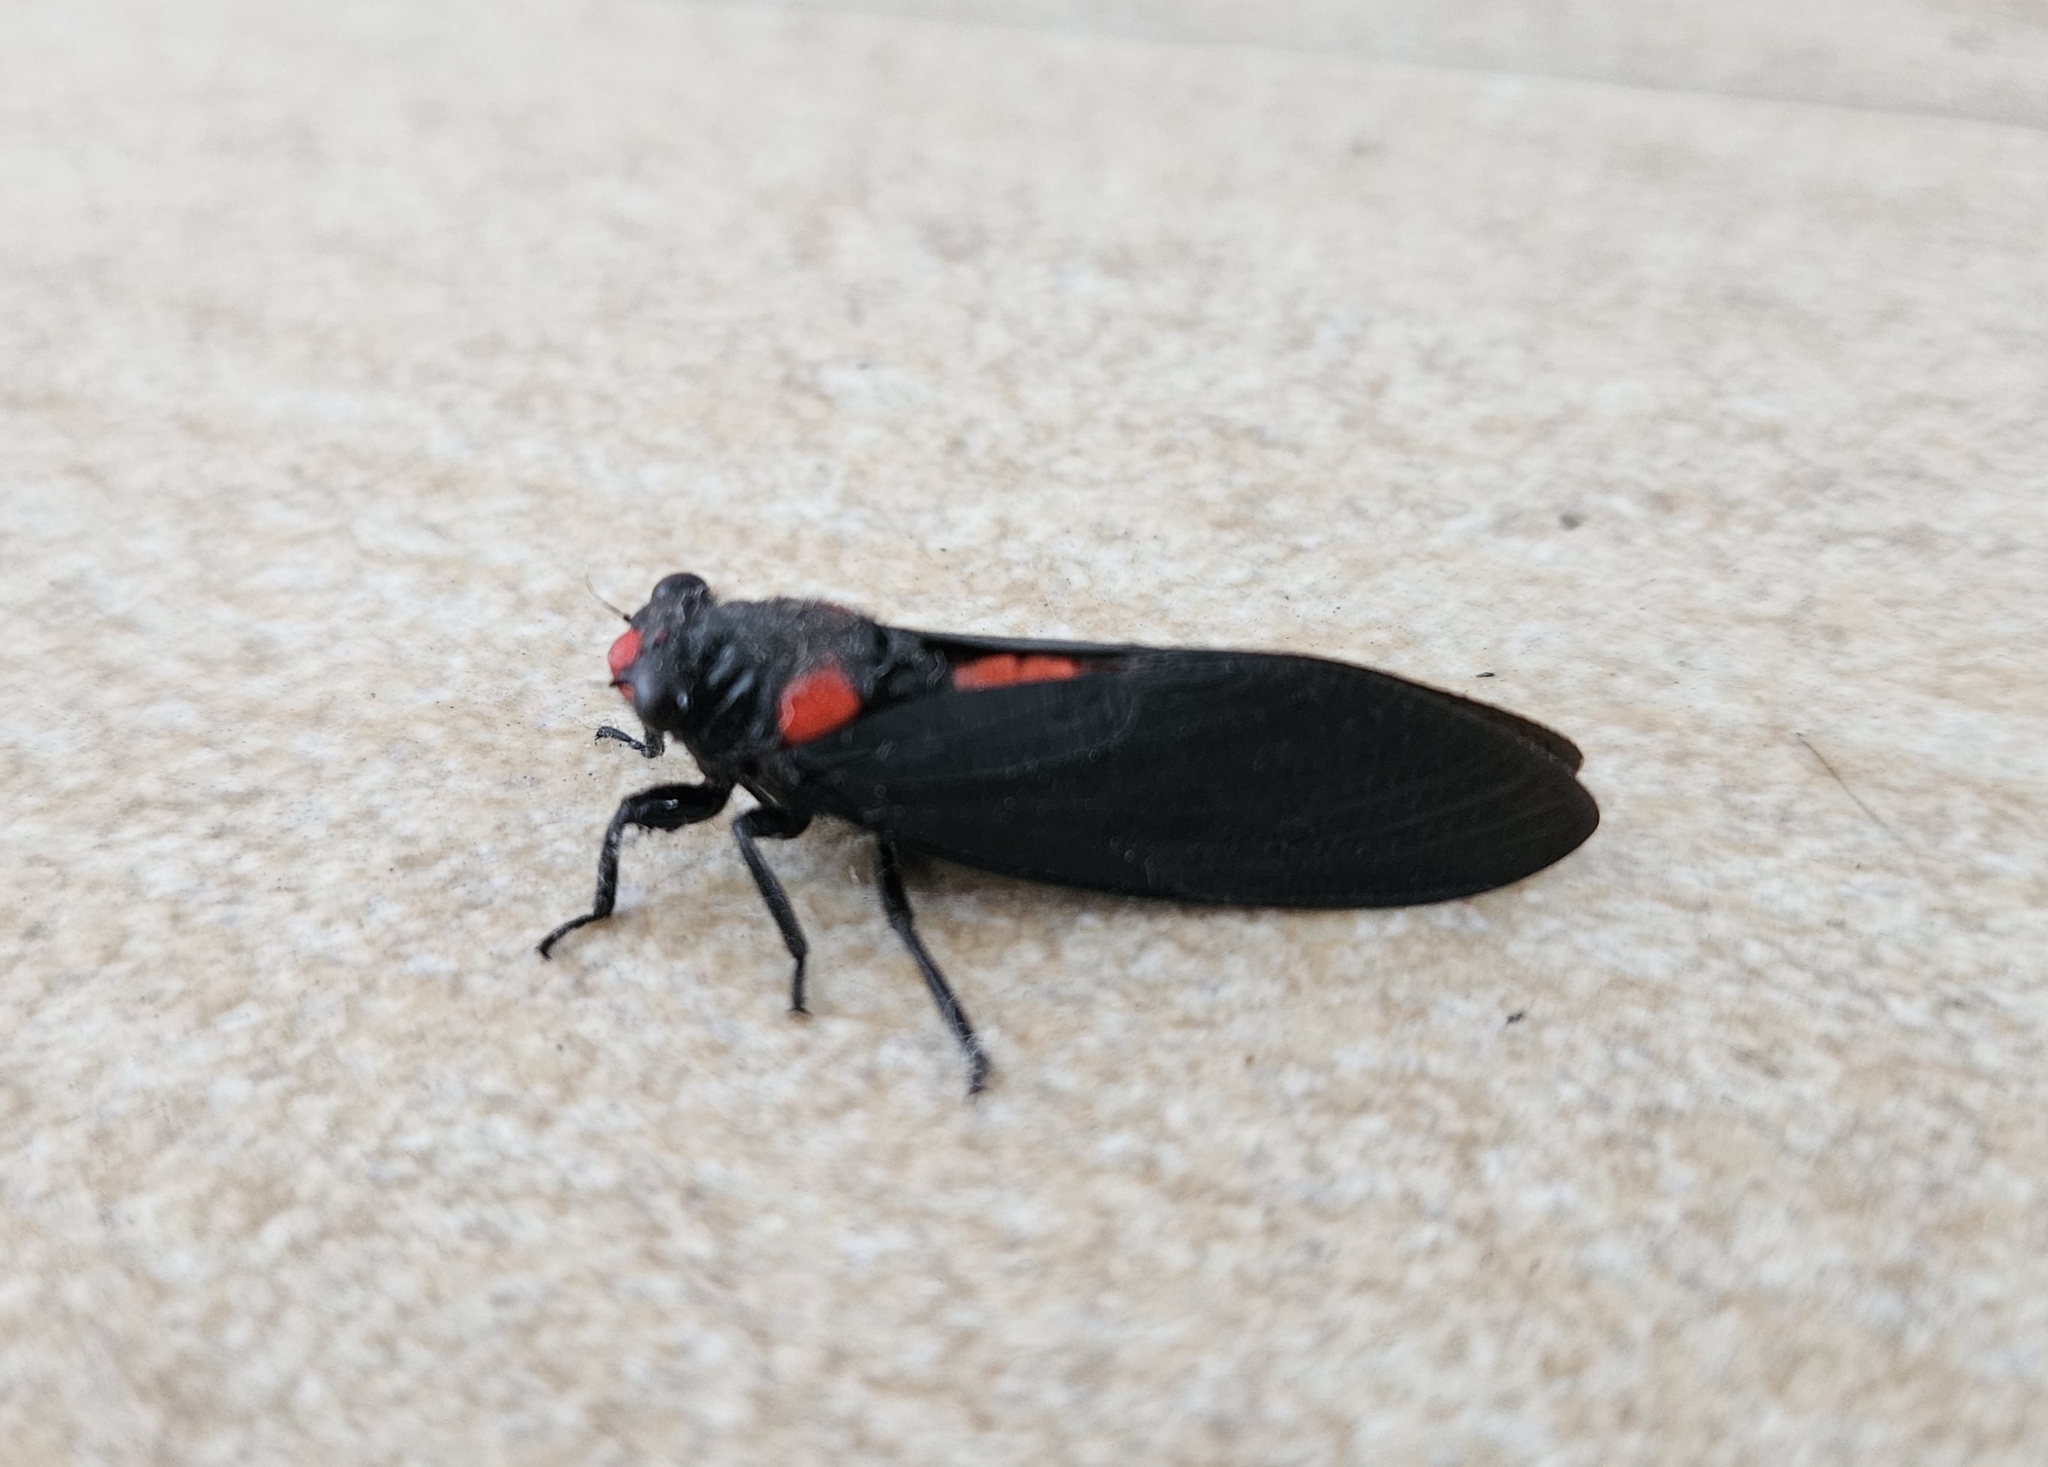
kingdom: Animalia
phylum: Arthropoda
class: Insecta
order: Hemiptera
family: Cicadidae
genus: Huechys
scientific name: Huechys sanguinea
